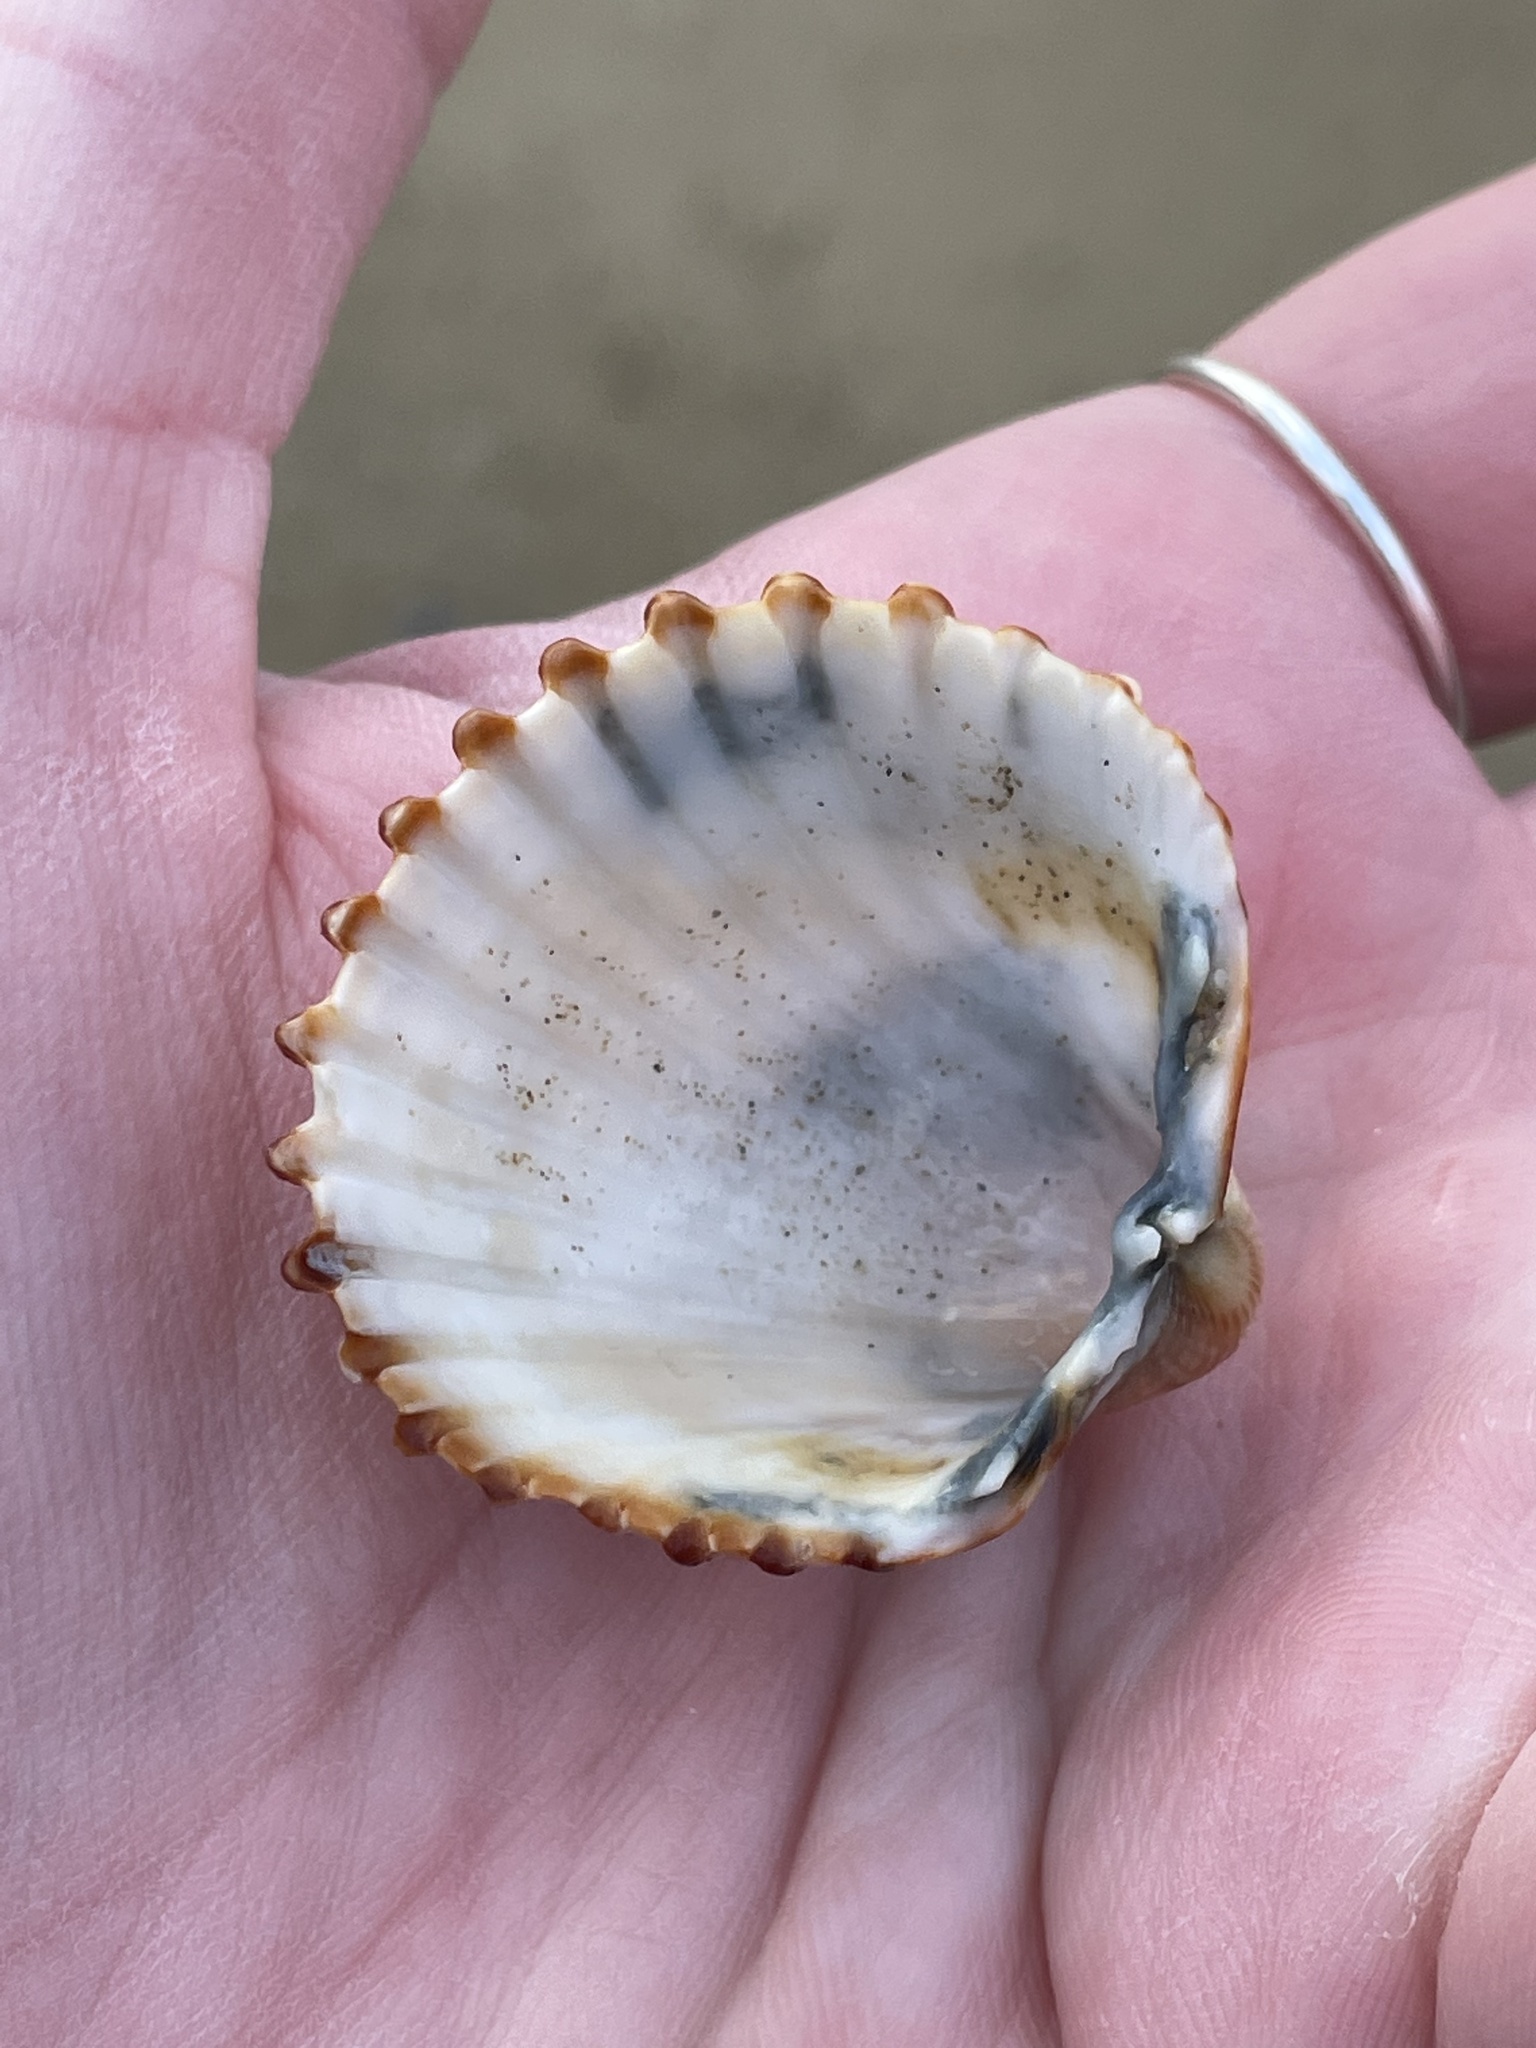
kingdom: Animalia
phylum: Mollusca
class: Bivalvia
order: Cardiida
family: Cardiidae
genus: Acanthocardia
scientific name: Acanthocardia tuberculata
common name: Rough cockle
